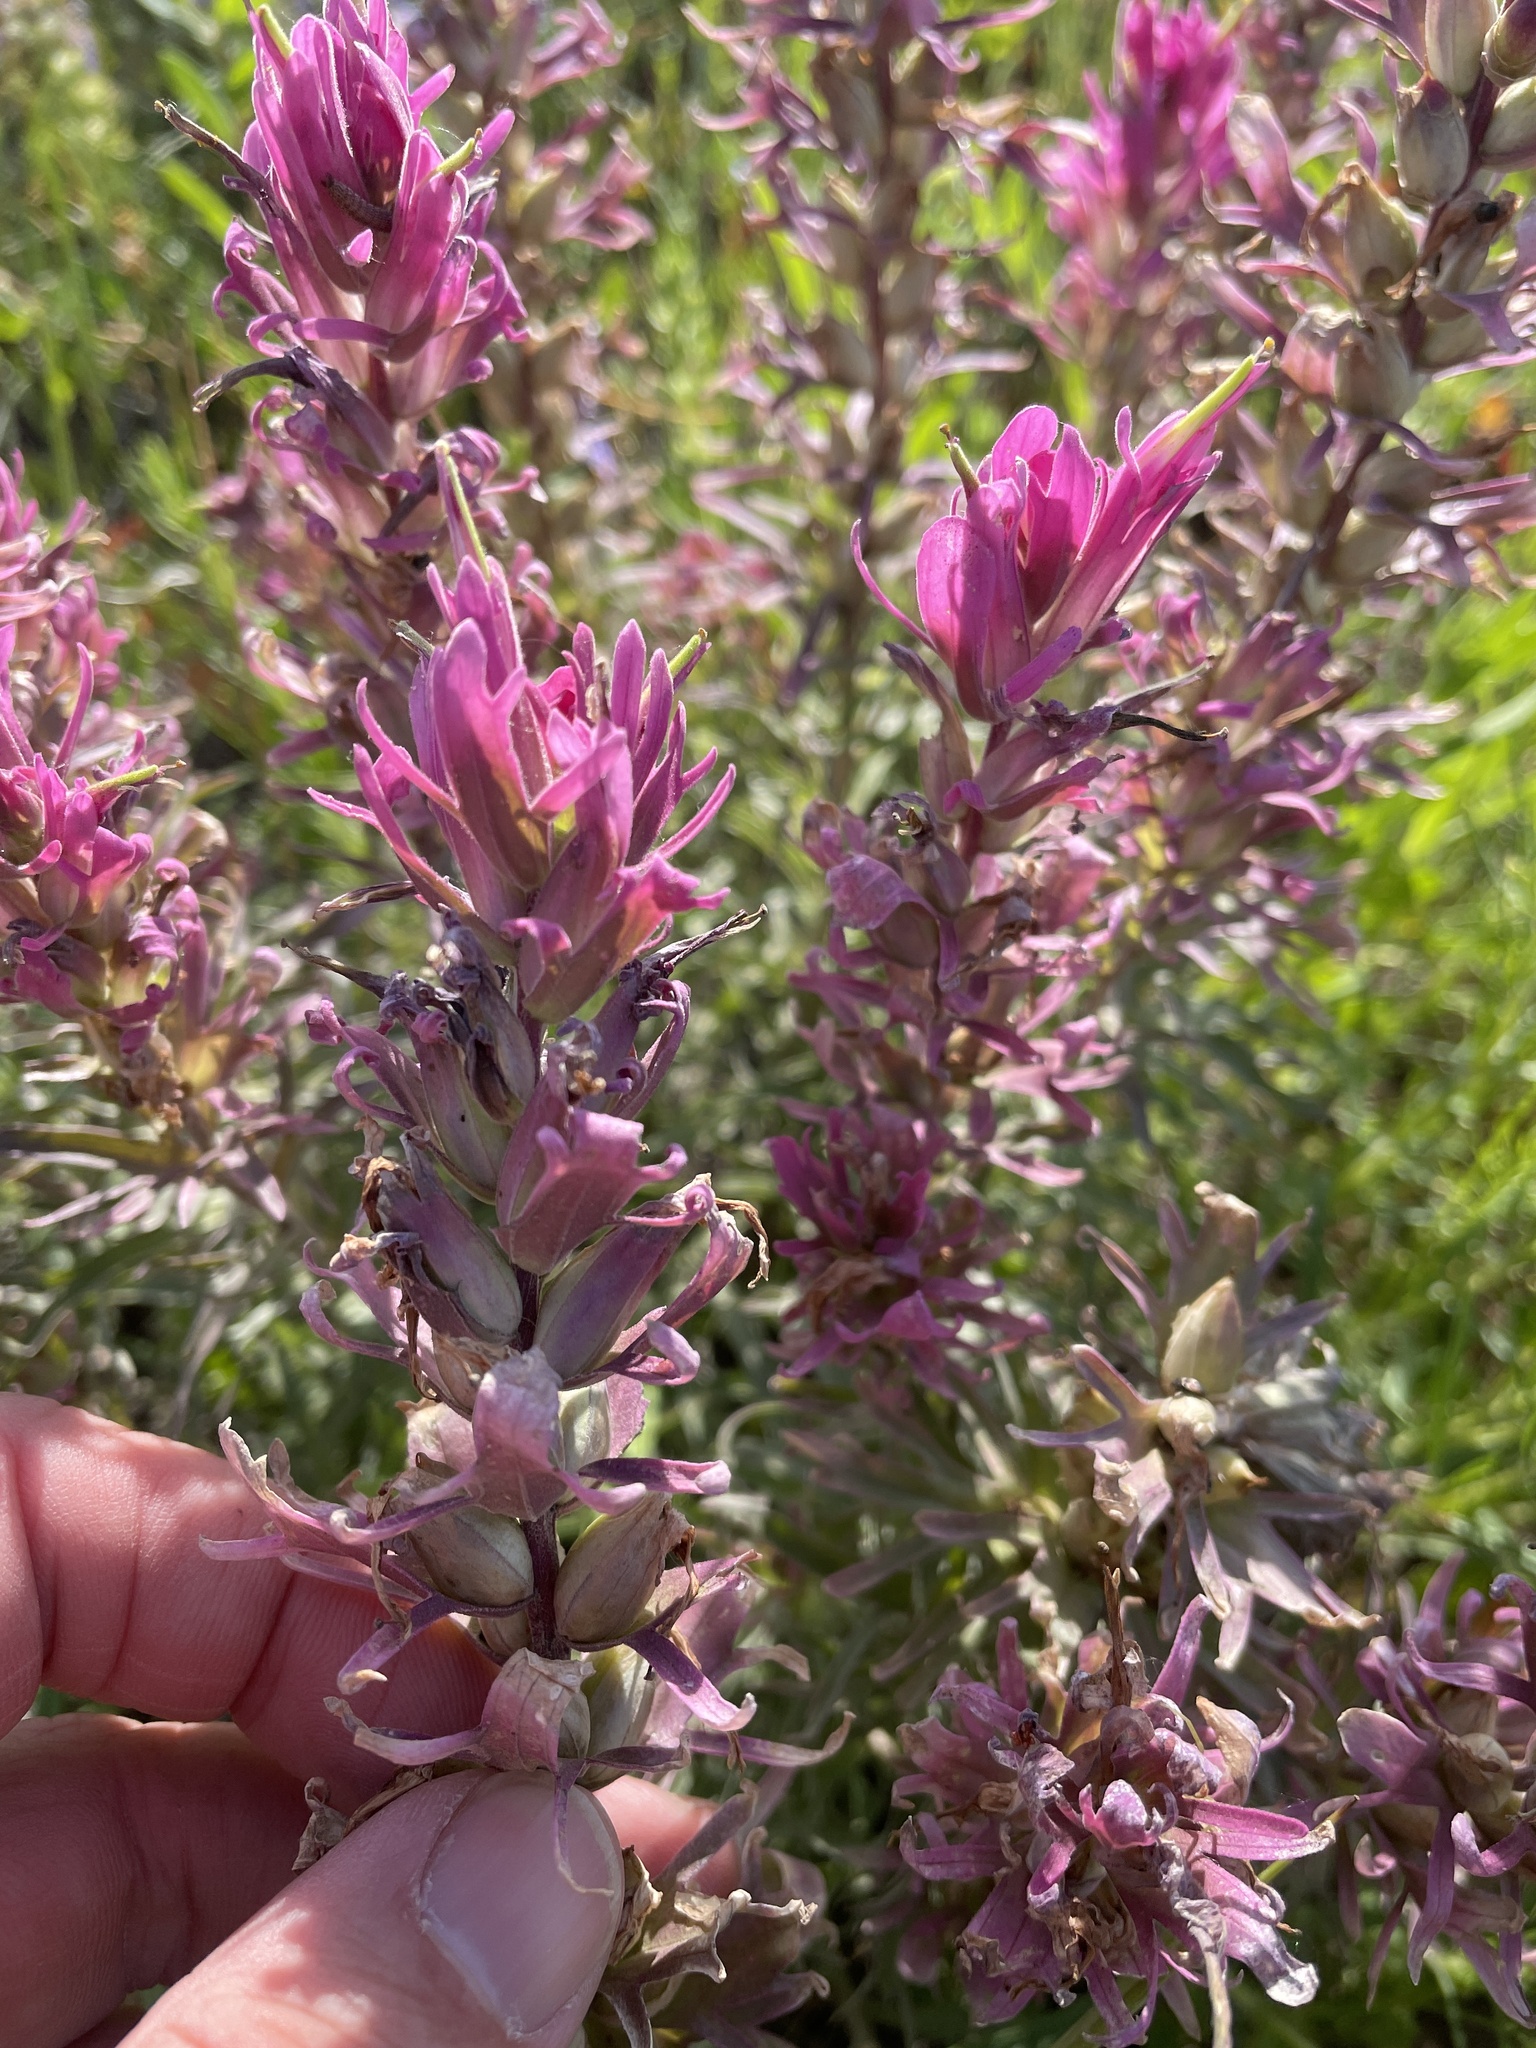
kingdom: Plantae
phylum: Tracheophyta
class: Magnoliopsida
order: Lamiales
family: Orobanchaceae
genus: Castilleja
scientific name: Castilleja purpurea
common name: Plains paintbrush
